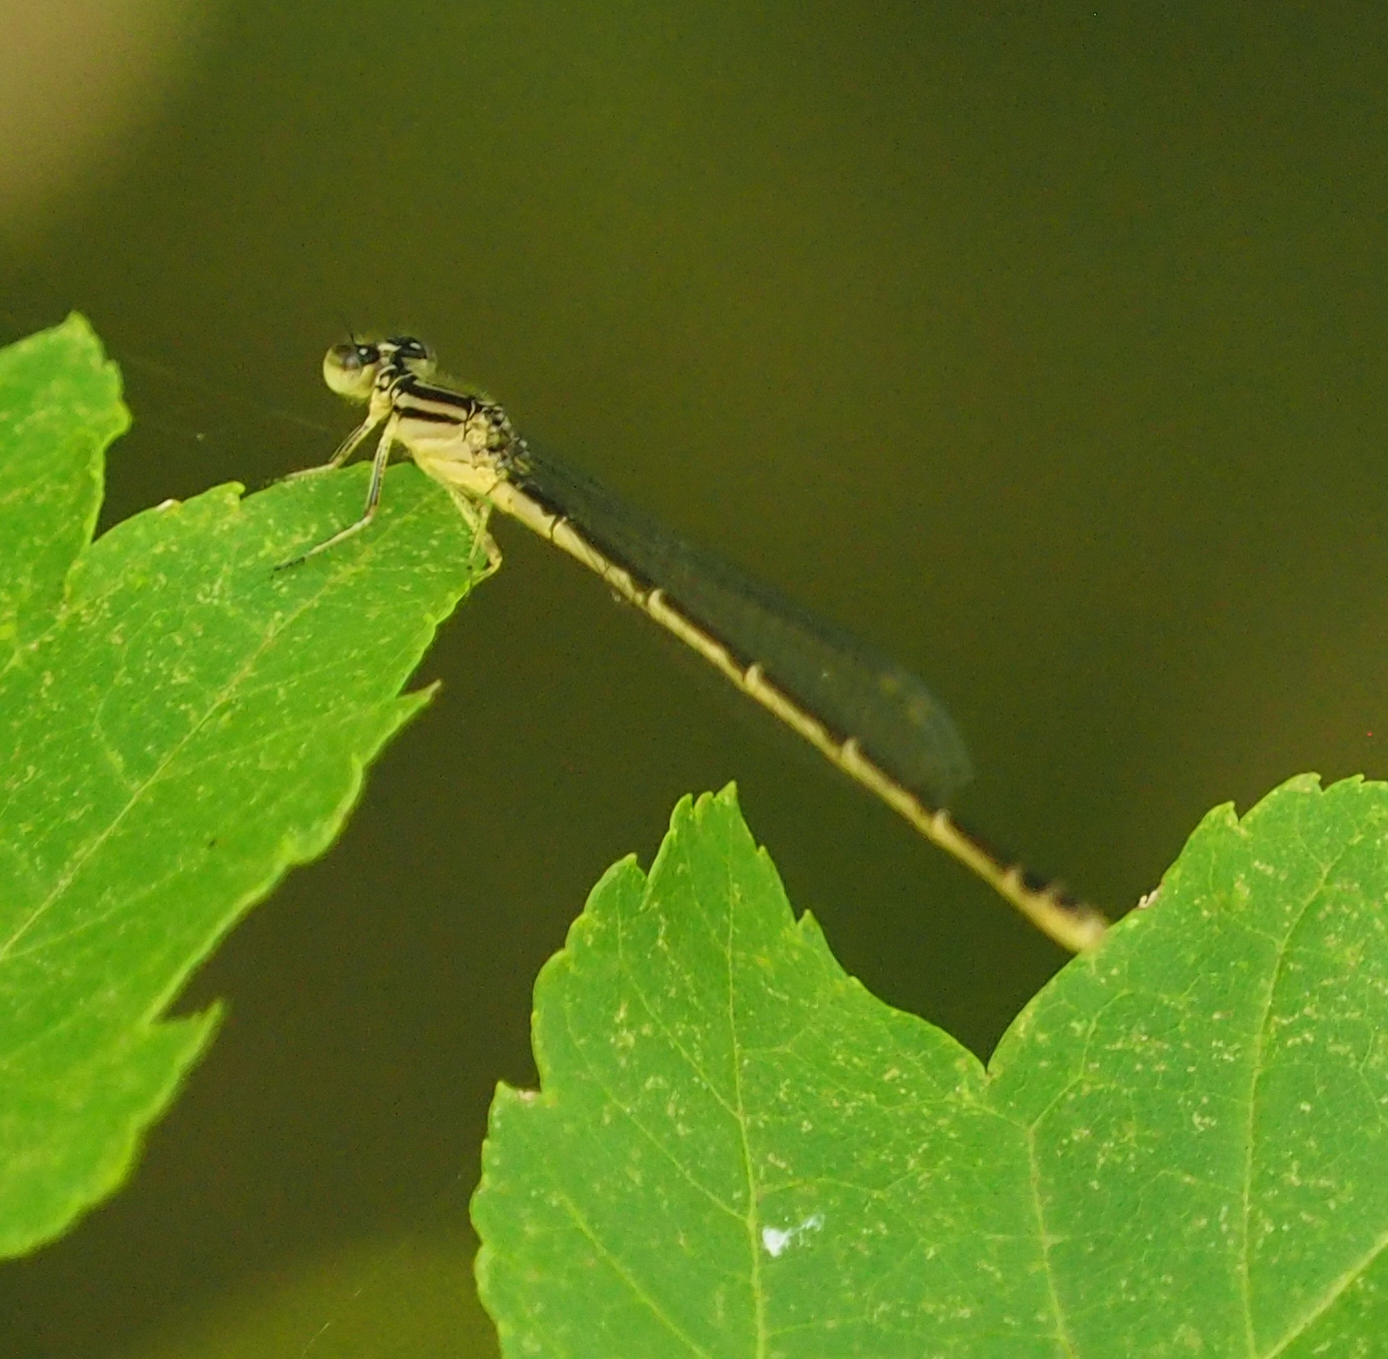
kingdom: Animalia
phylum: Arthropoda
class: Insecta
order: Odonata
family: Coenagrionidae
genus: Enallagma
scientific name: Enallagma durum
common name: Big bluet
